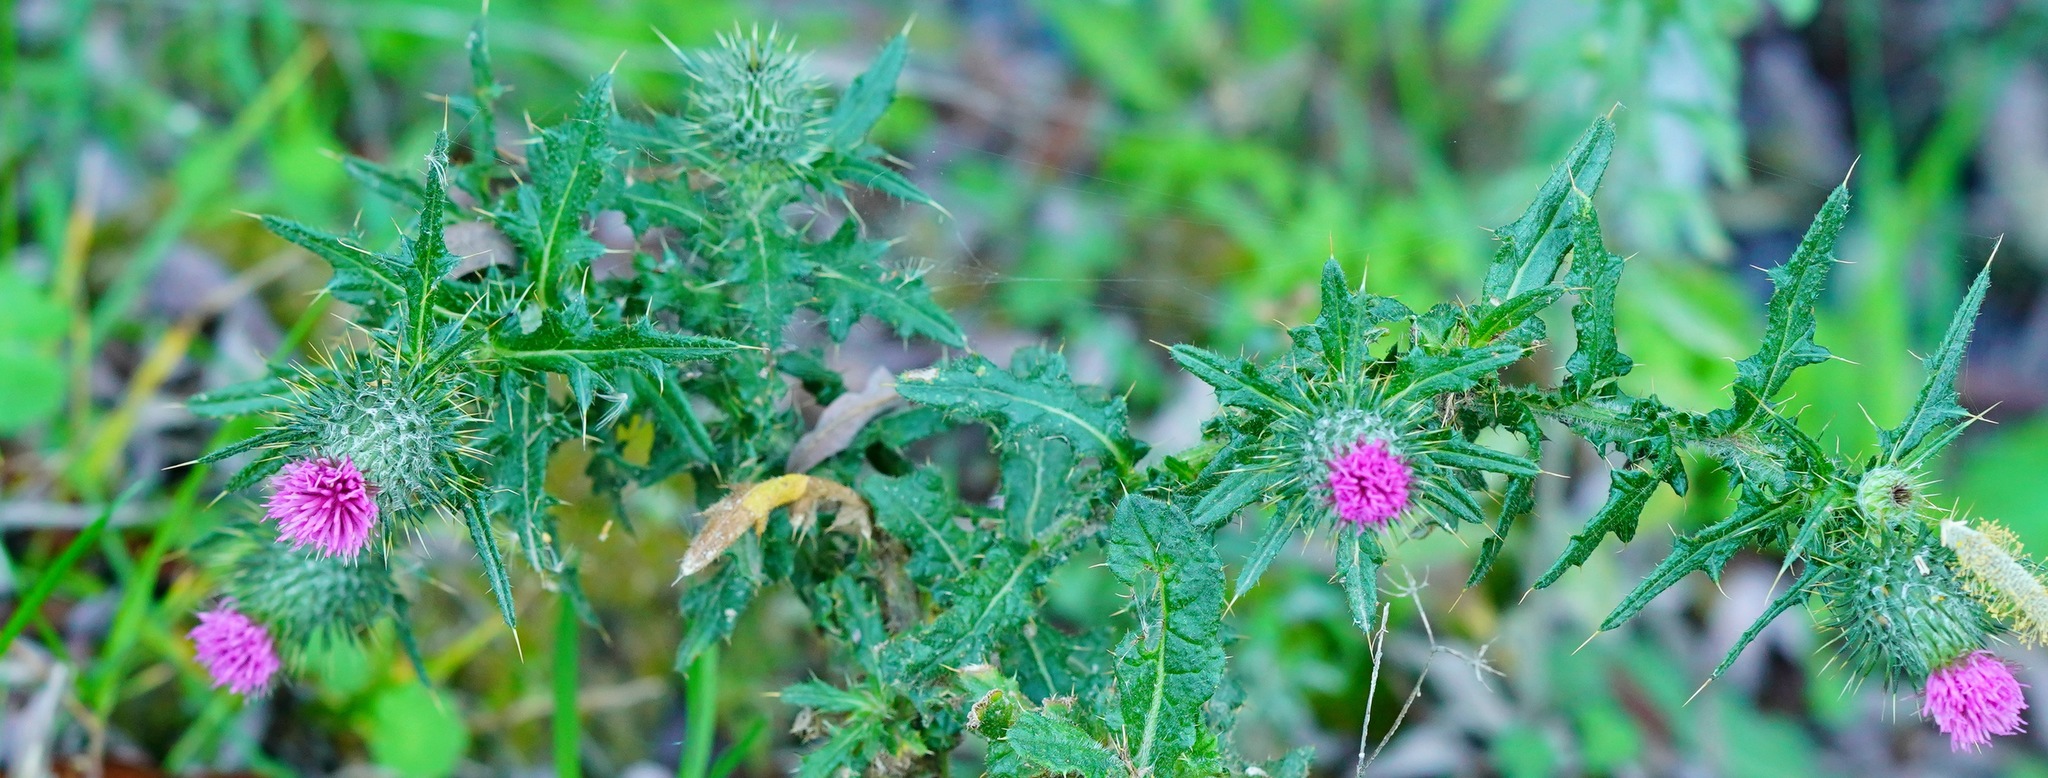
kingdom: Plantae
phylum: Tracheophyta
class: Magnoliopsida
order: Asterales
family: Asteraceae
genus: Cirsium
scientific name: Cirsium vulgare
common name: Bull thistle
